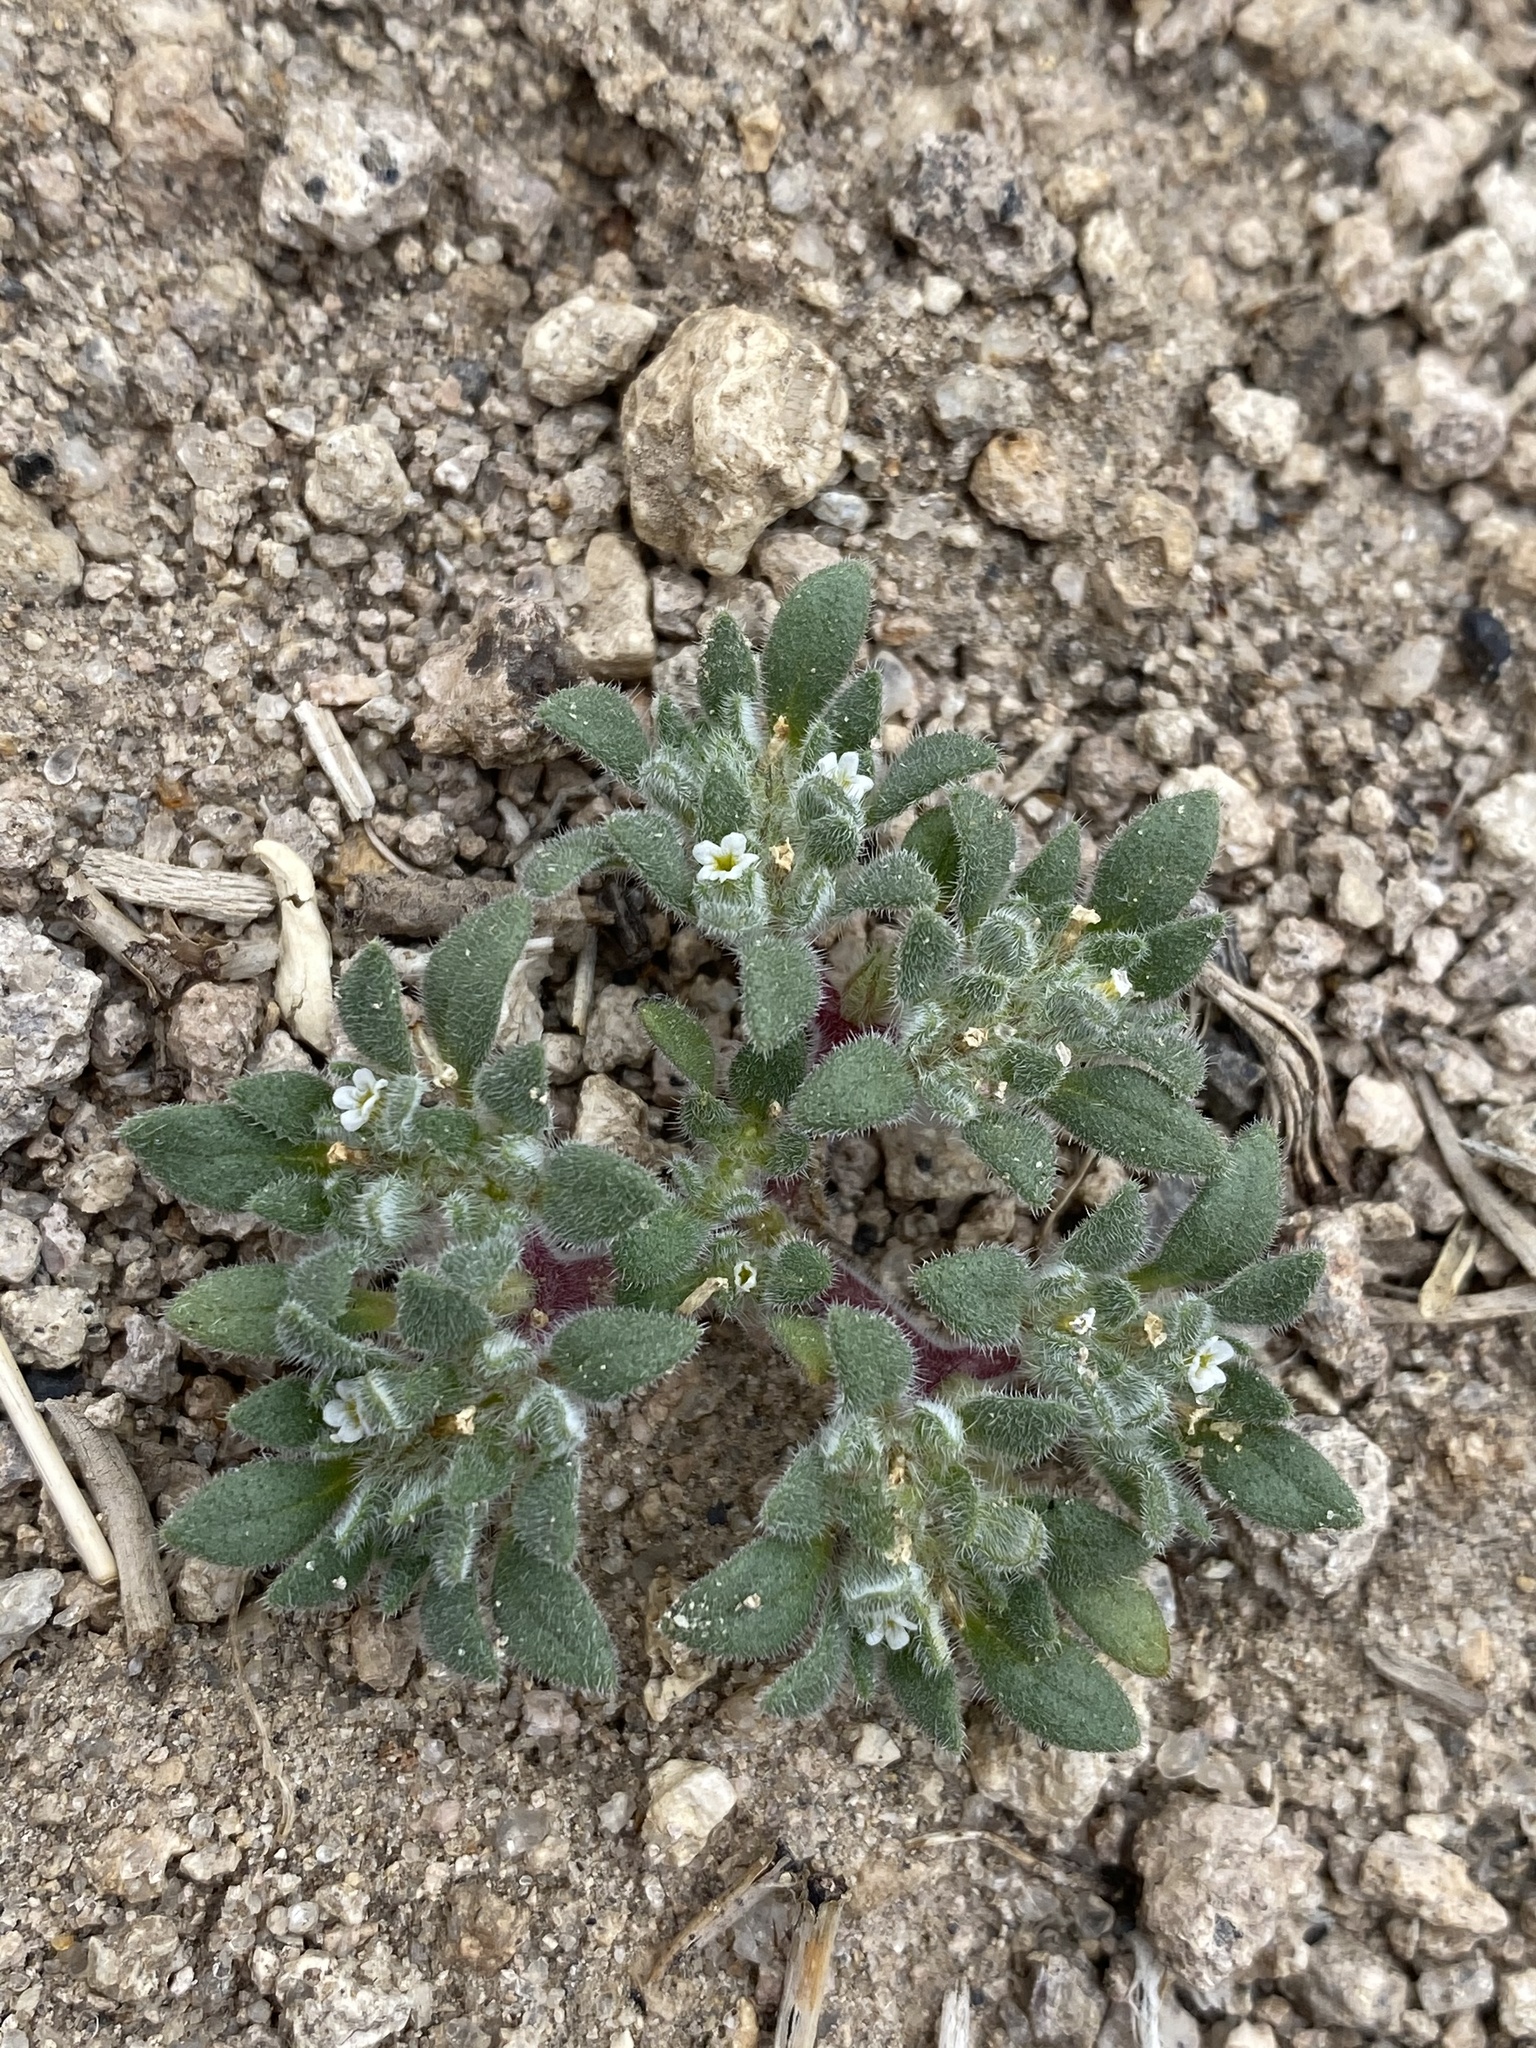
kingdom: Plantae
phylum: Tracheophyta
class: Magnoliopsida
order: Boraginales
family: Namaceae
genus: Nama
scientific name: Nama pusilla
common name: Eggleaf nama
